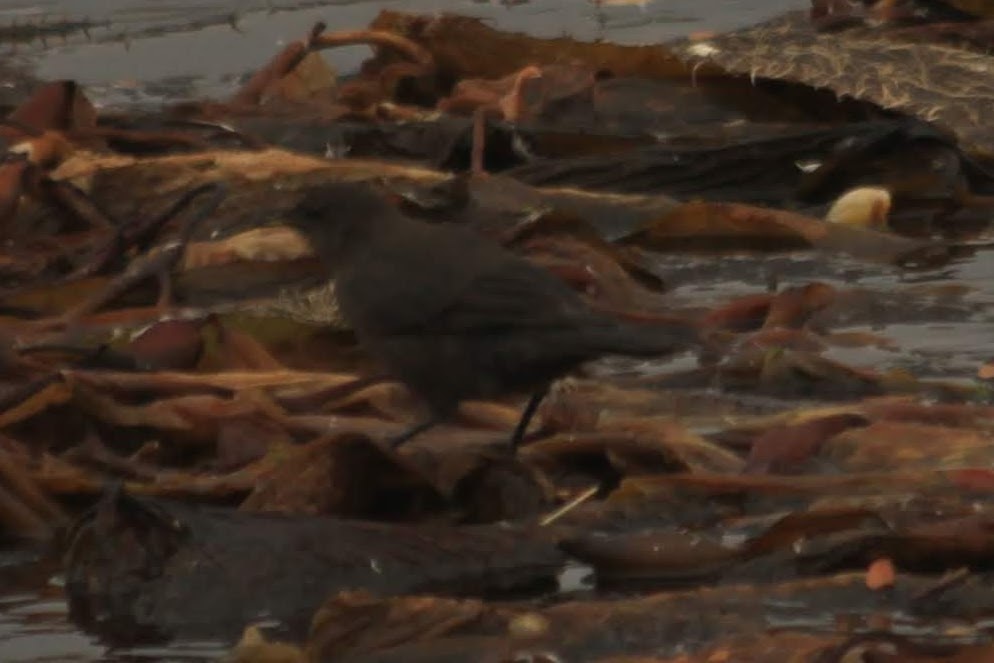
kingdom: Animalia
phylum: Chordata
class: Aves
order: Passeriformes
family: Furnariidae
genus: Cinclodes
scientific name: Cinclodes antarcticus
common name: Blackish cinclodes
